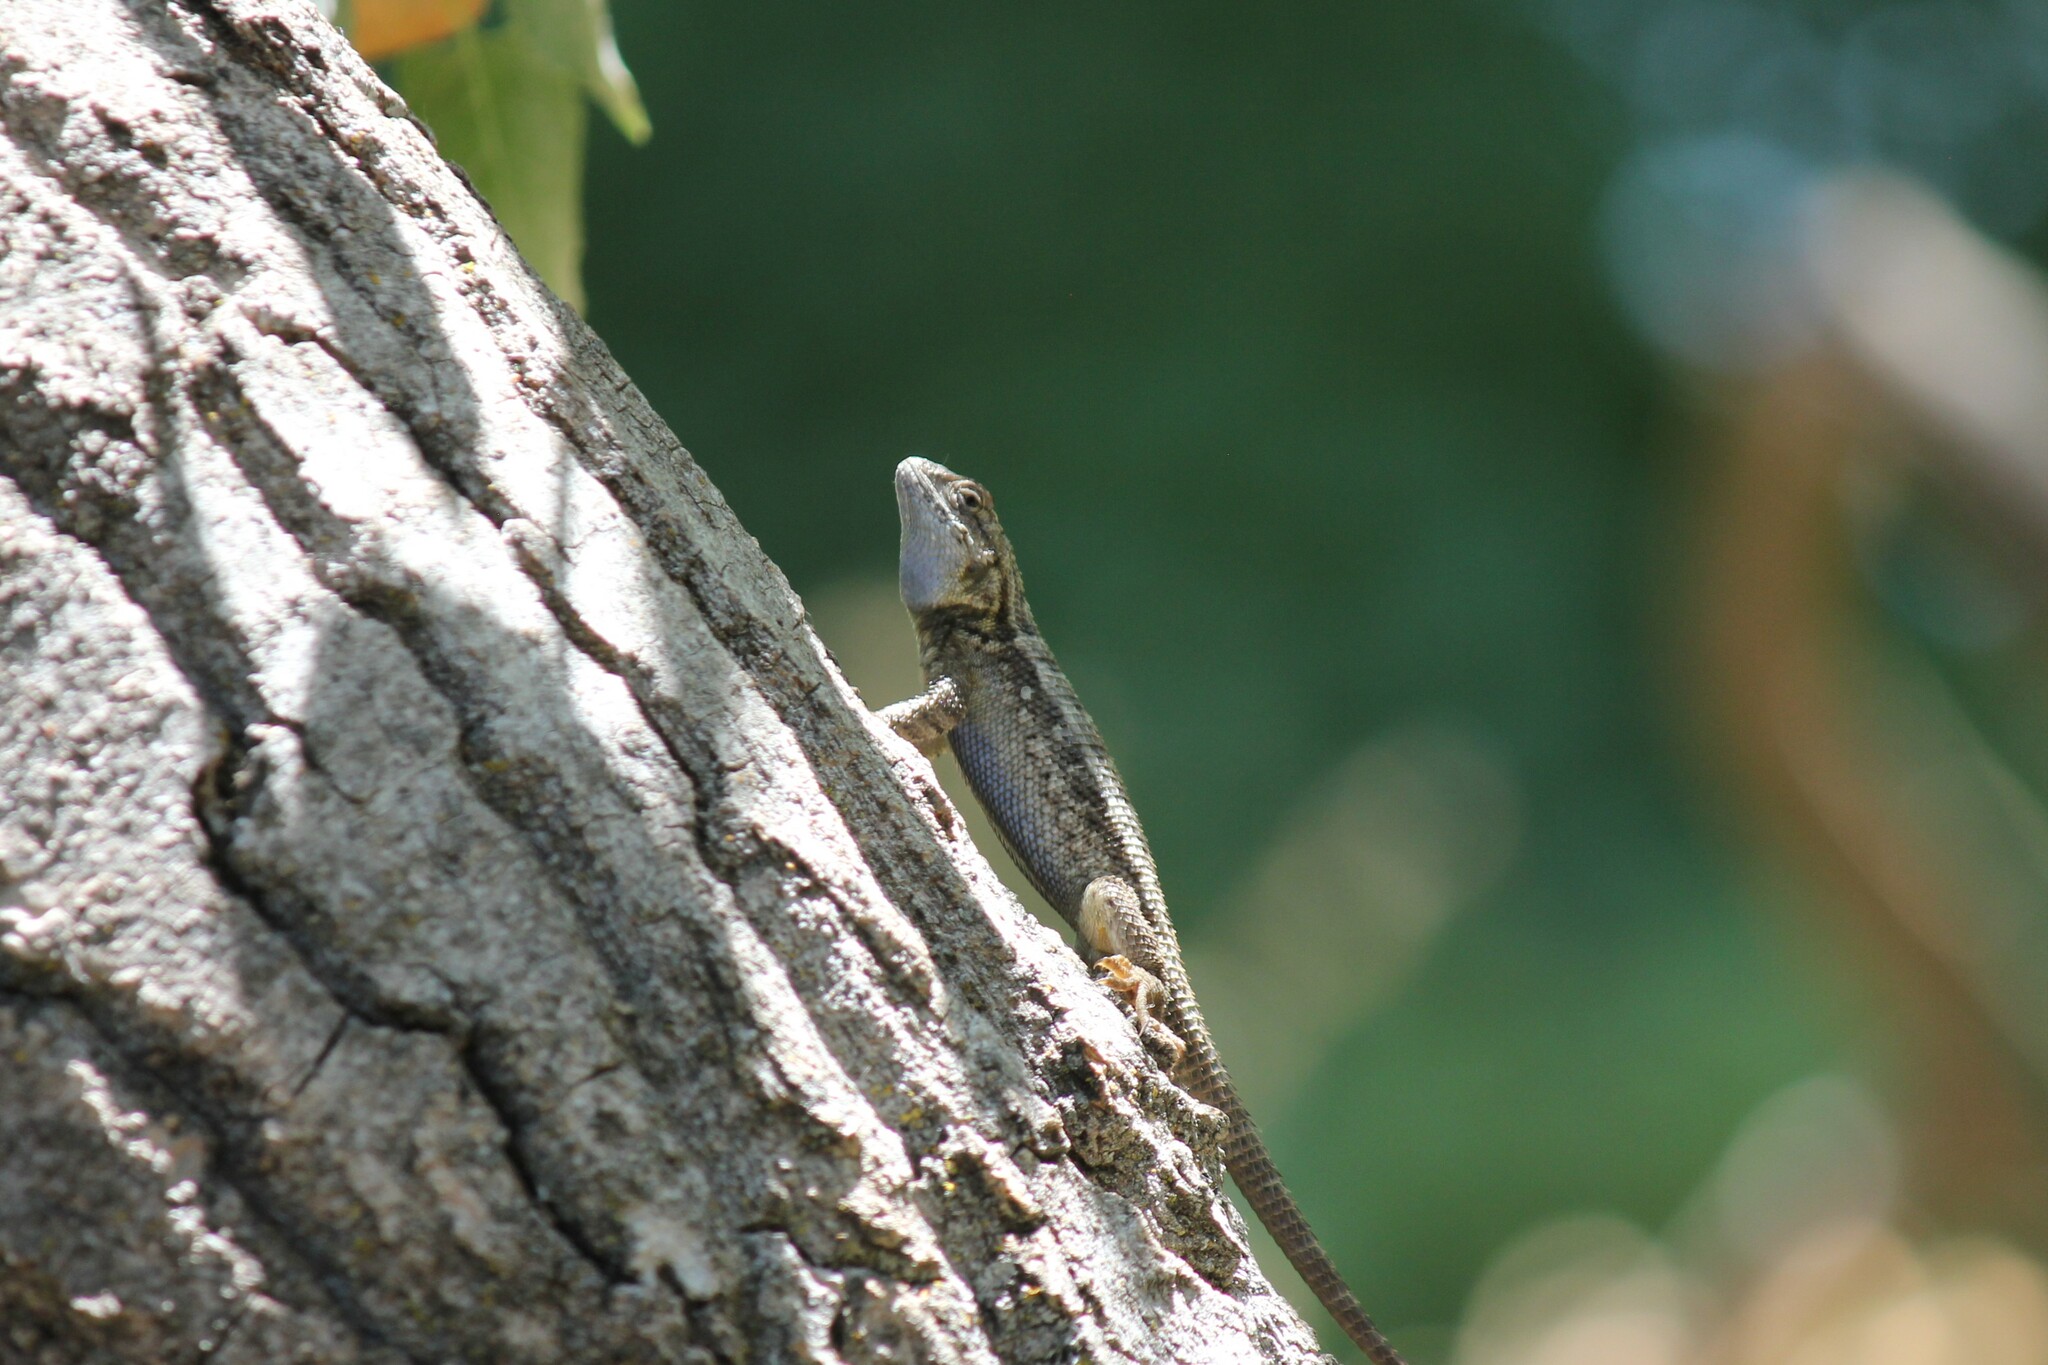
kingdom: Animalia
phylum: Chordata
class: Squamata
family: Phrynosomatidae
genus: Sceloporus
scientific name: Sceloporus occidentalis
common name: Western fence lizard
